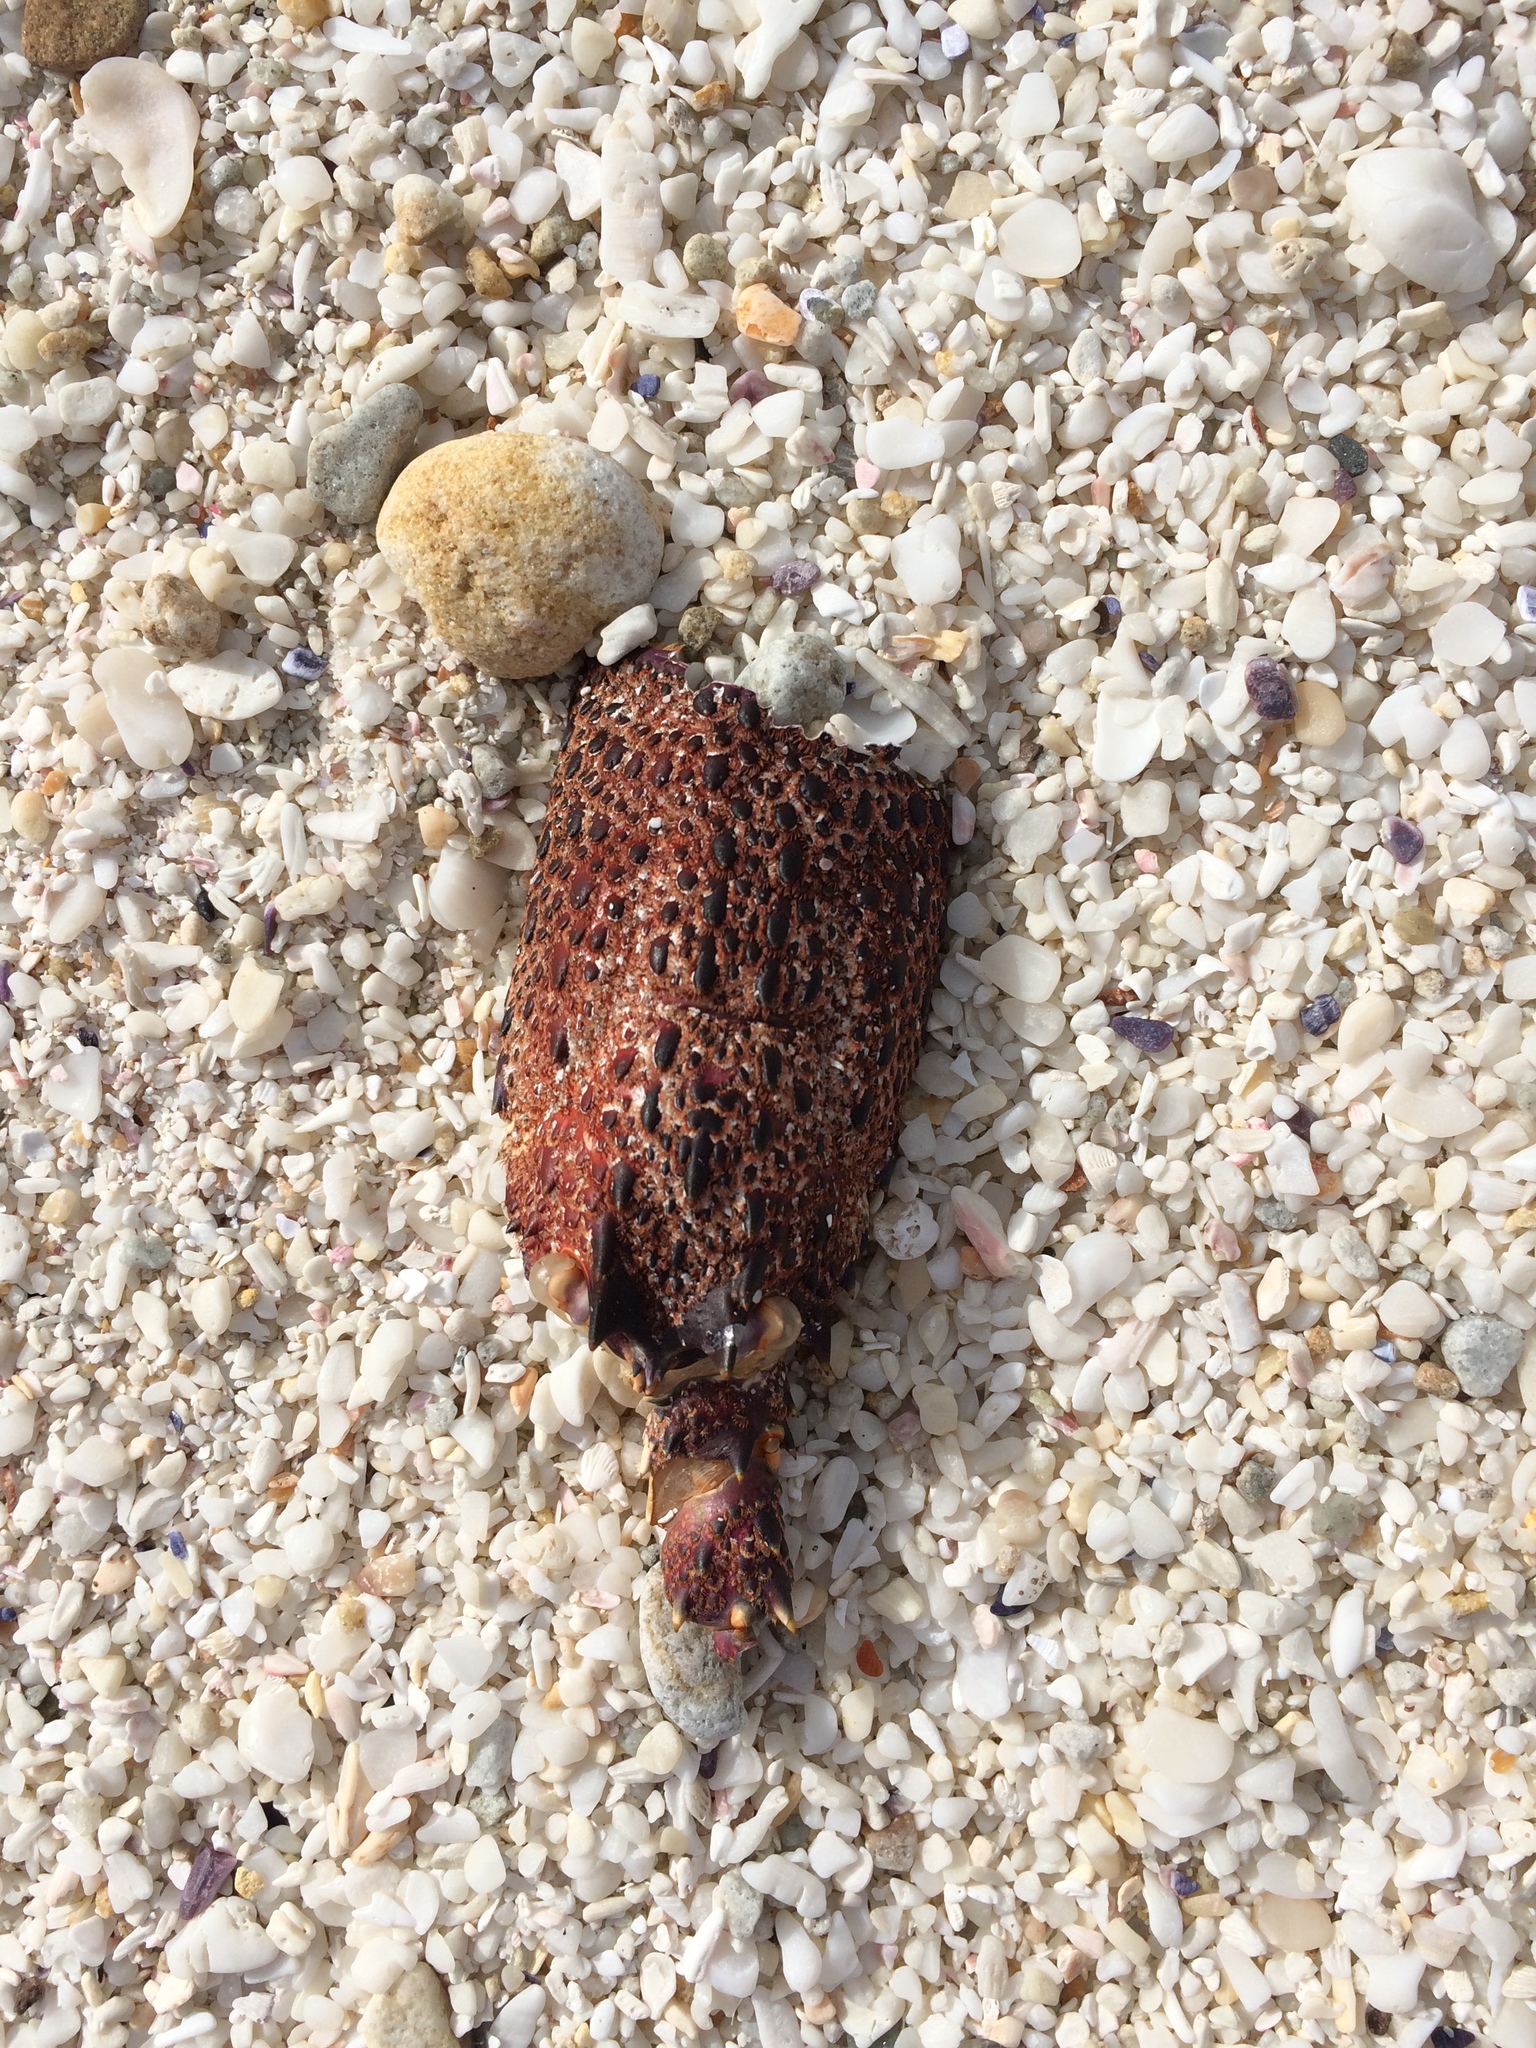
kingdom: Animalia
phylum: Arthropoda
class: Malacostraca
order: Decapoda
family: Palinuridae
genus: Jasus
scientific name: Jasus lalandii
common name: Cape rock lobster
